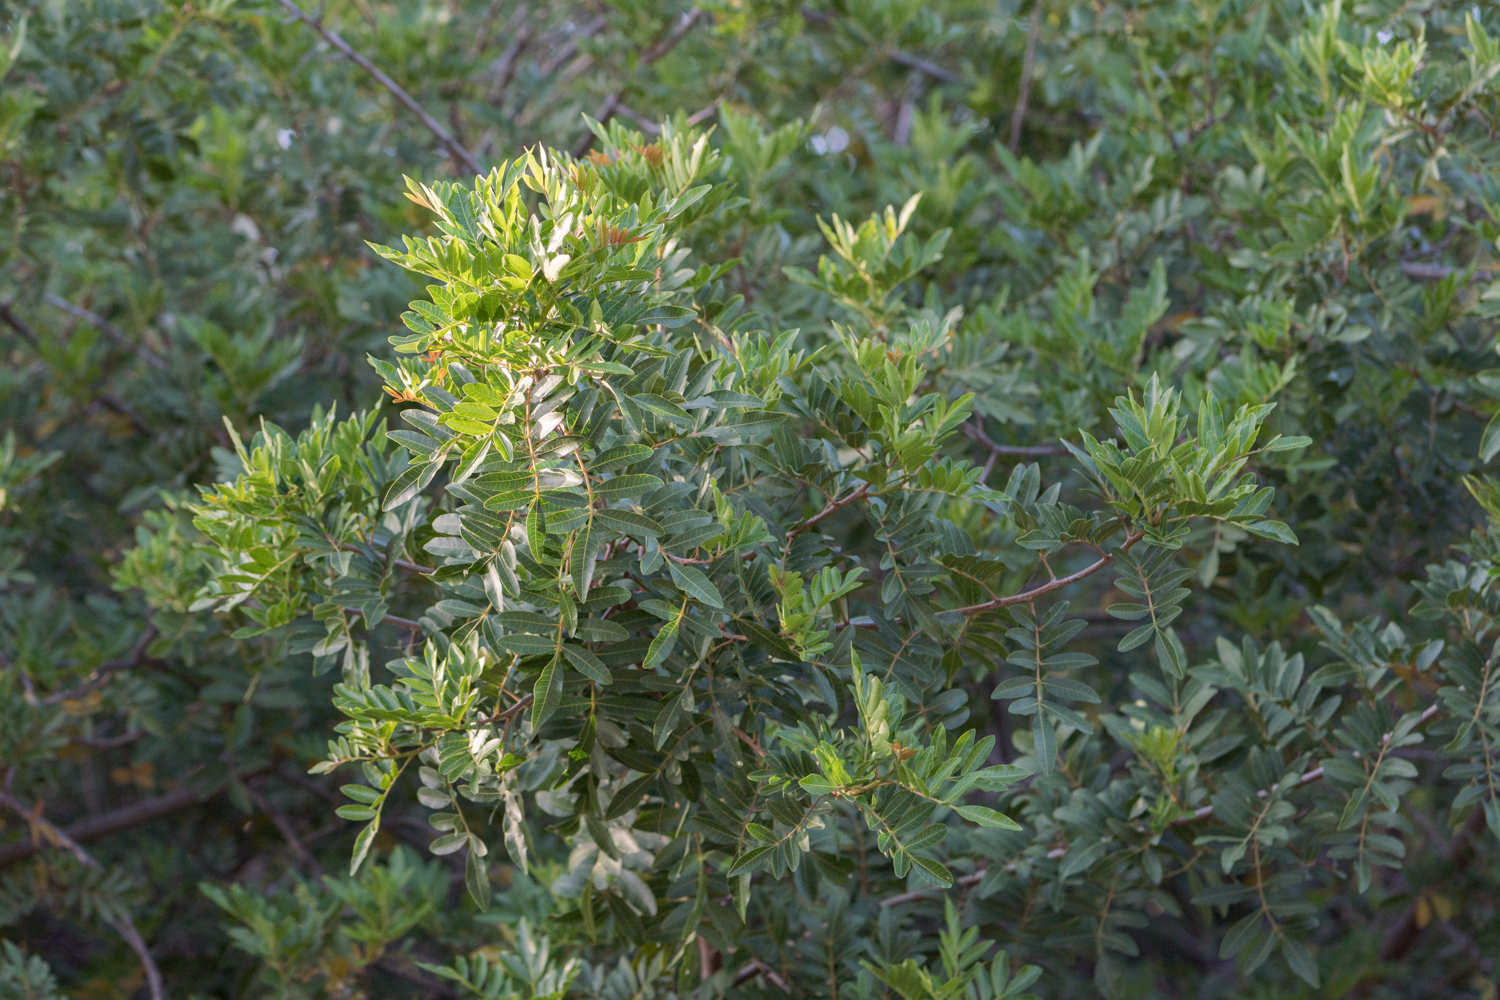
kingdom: Plantae
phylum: Tracheophyta
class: Magnoliopsida
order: Sapindales
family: Anacardiaceae
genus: Schinus
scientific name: Schinus terebinthifolia
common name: Brazilian peppertree
